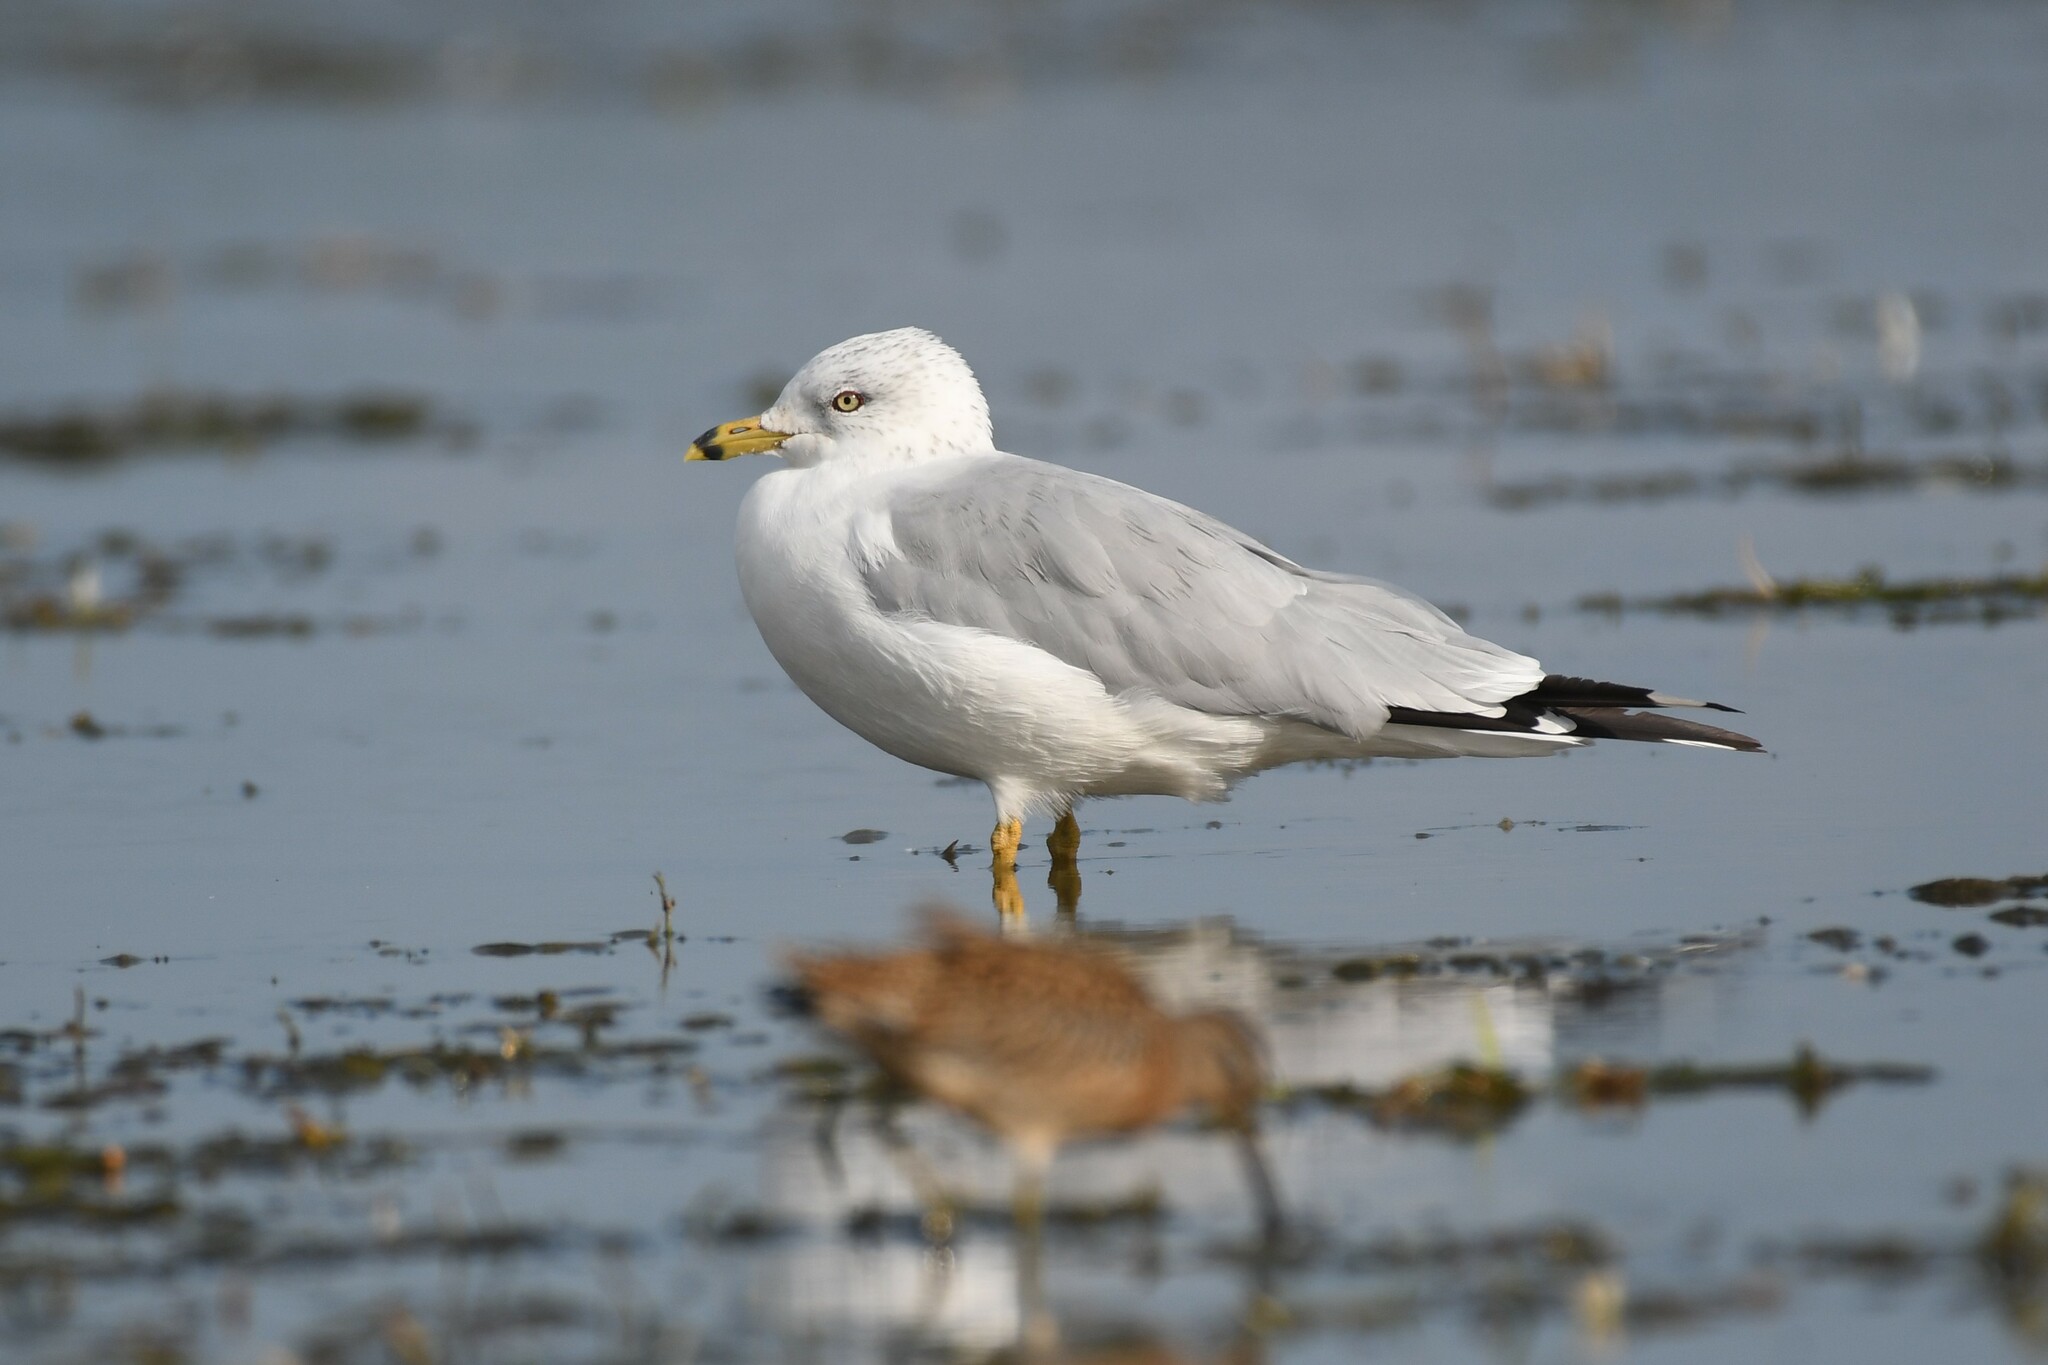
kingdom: Animalia
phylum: Chordata
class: Aves
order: Charadriiformes
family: Laridae
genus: Larus
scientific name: Larus delawarensis
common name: Ring-billed gull
